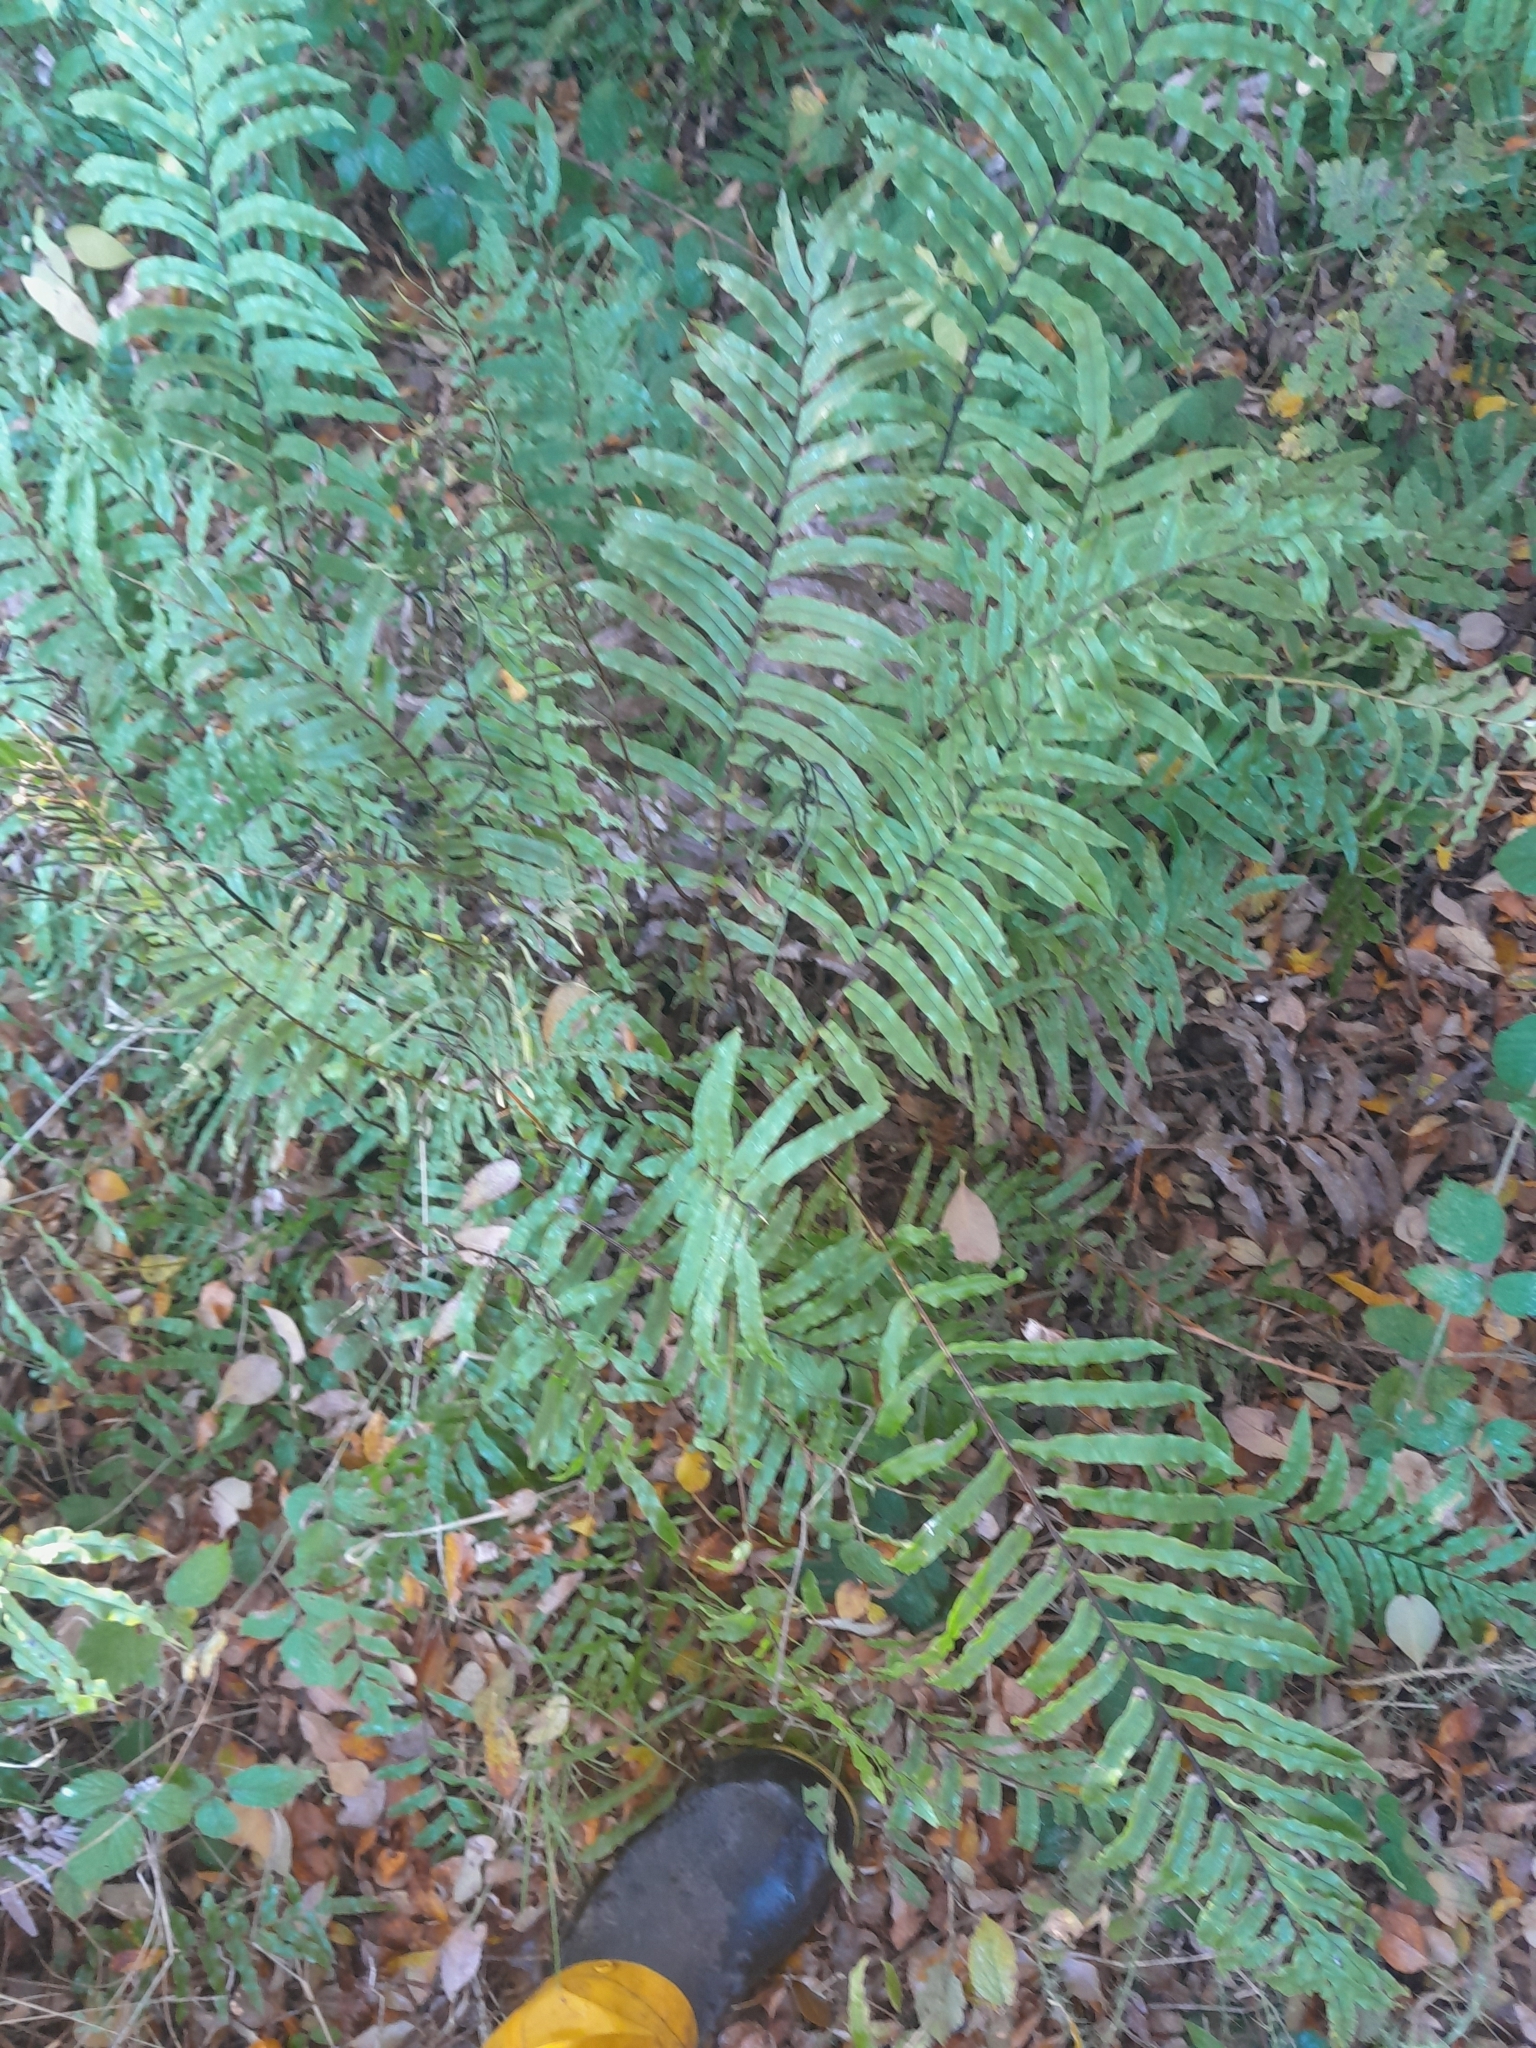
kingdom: Plantae
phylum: Tracheophyta
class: Polypodiopsida
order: Polypodiales
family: Blechnaceae
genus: Parablechnum
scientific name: Parablechnum minus
